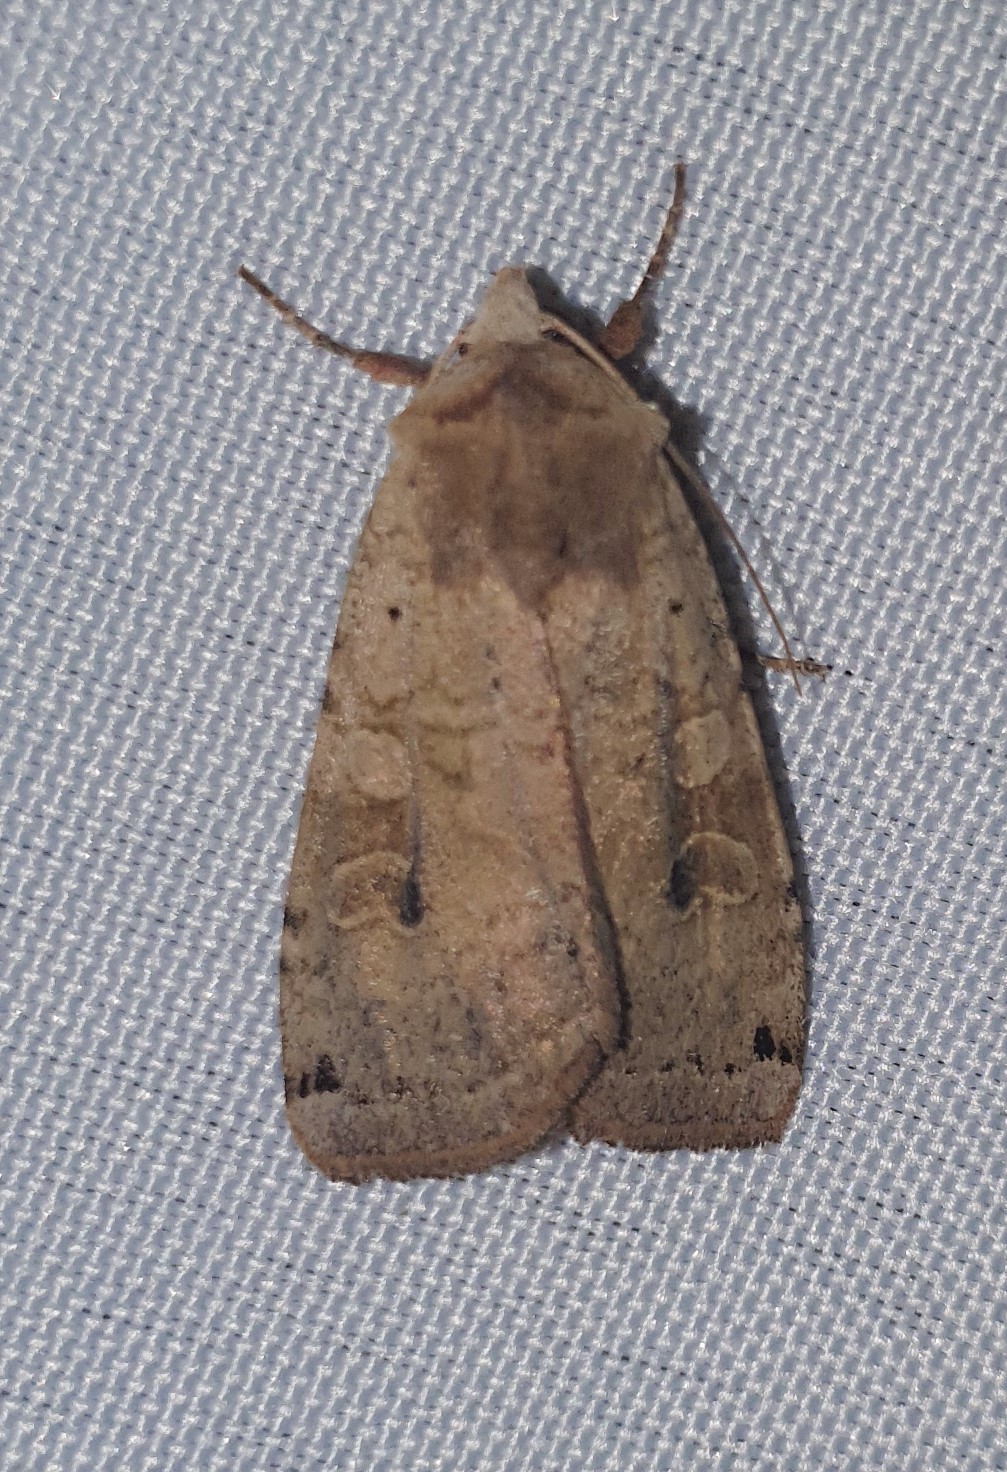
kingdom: Animalia
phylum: Arthropoda
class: Insecta
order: Lepidoptera
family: Noctuidae
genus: Xestia
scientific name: Xestia baja
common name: Dotted clay
